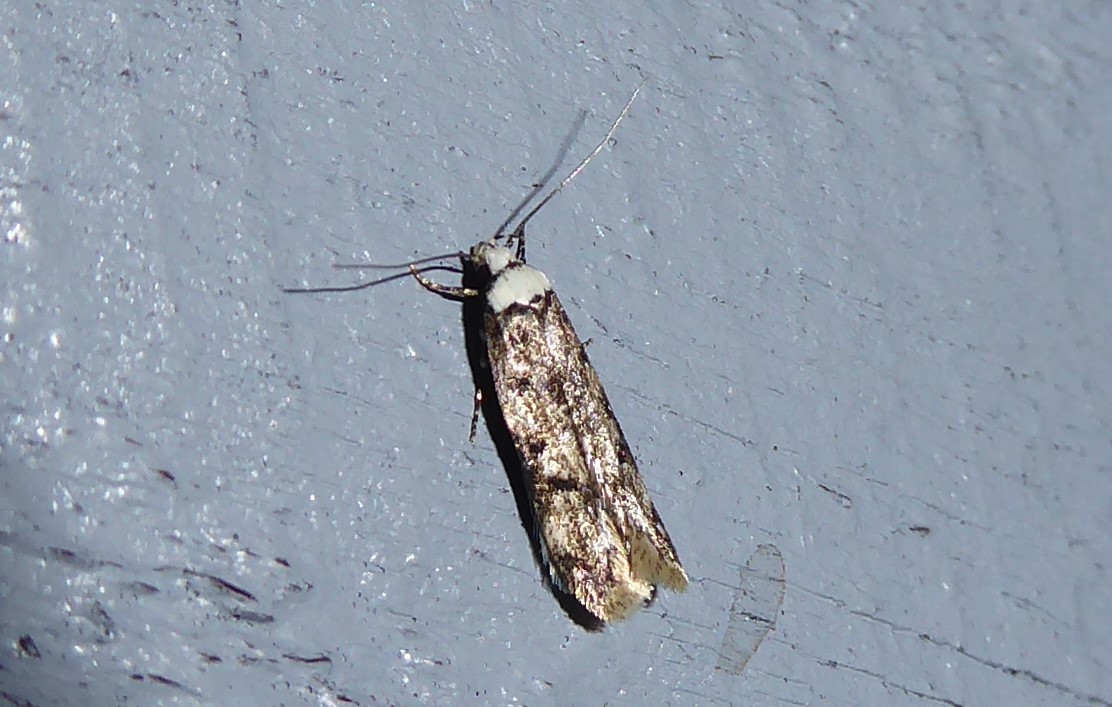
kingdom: Animalia
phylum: Arthropoda
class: Insecta
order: Lepidoptera
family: Oecophoridae
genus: Endrosis
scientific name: Endrosis sarcitrella
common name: White-shouldered house moth
